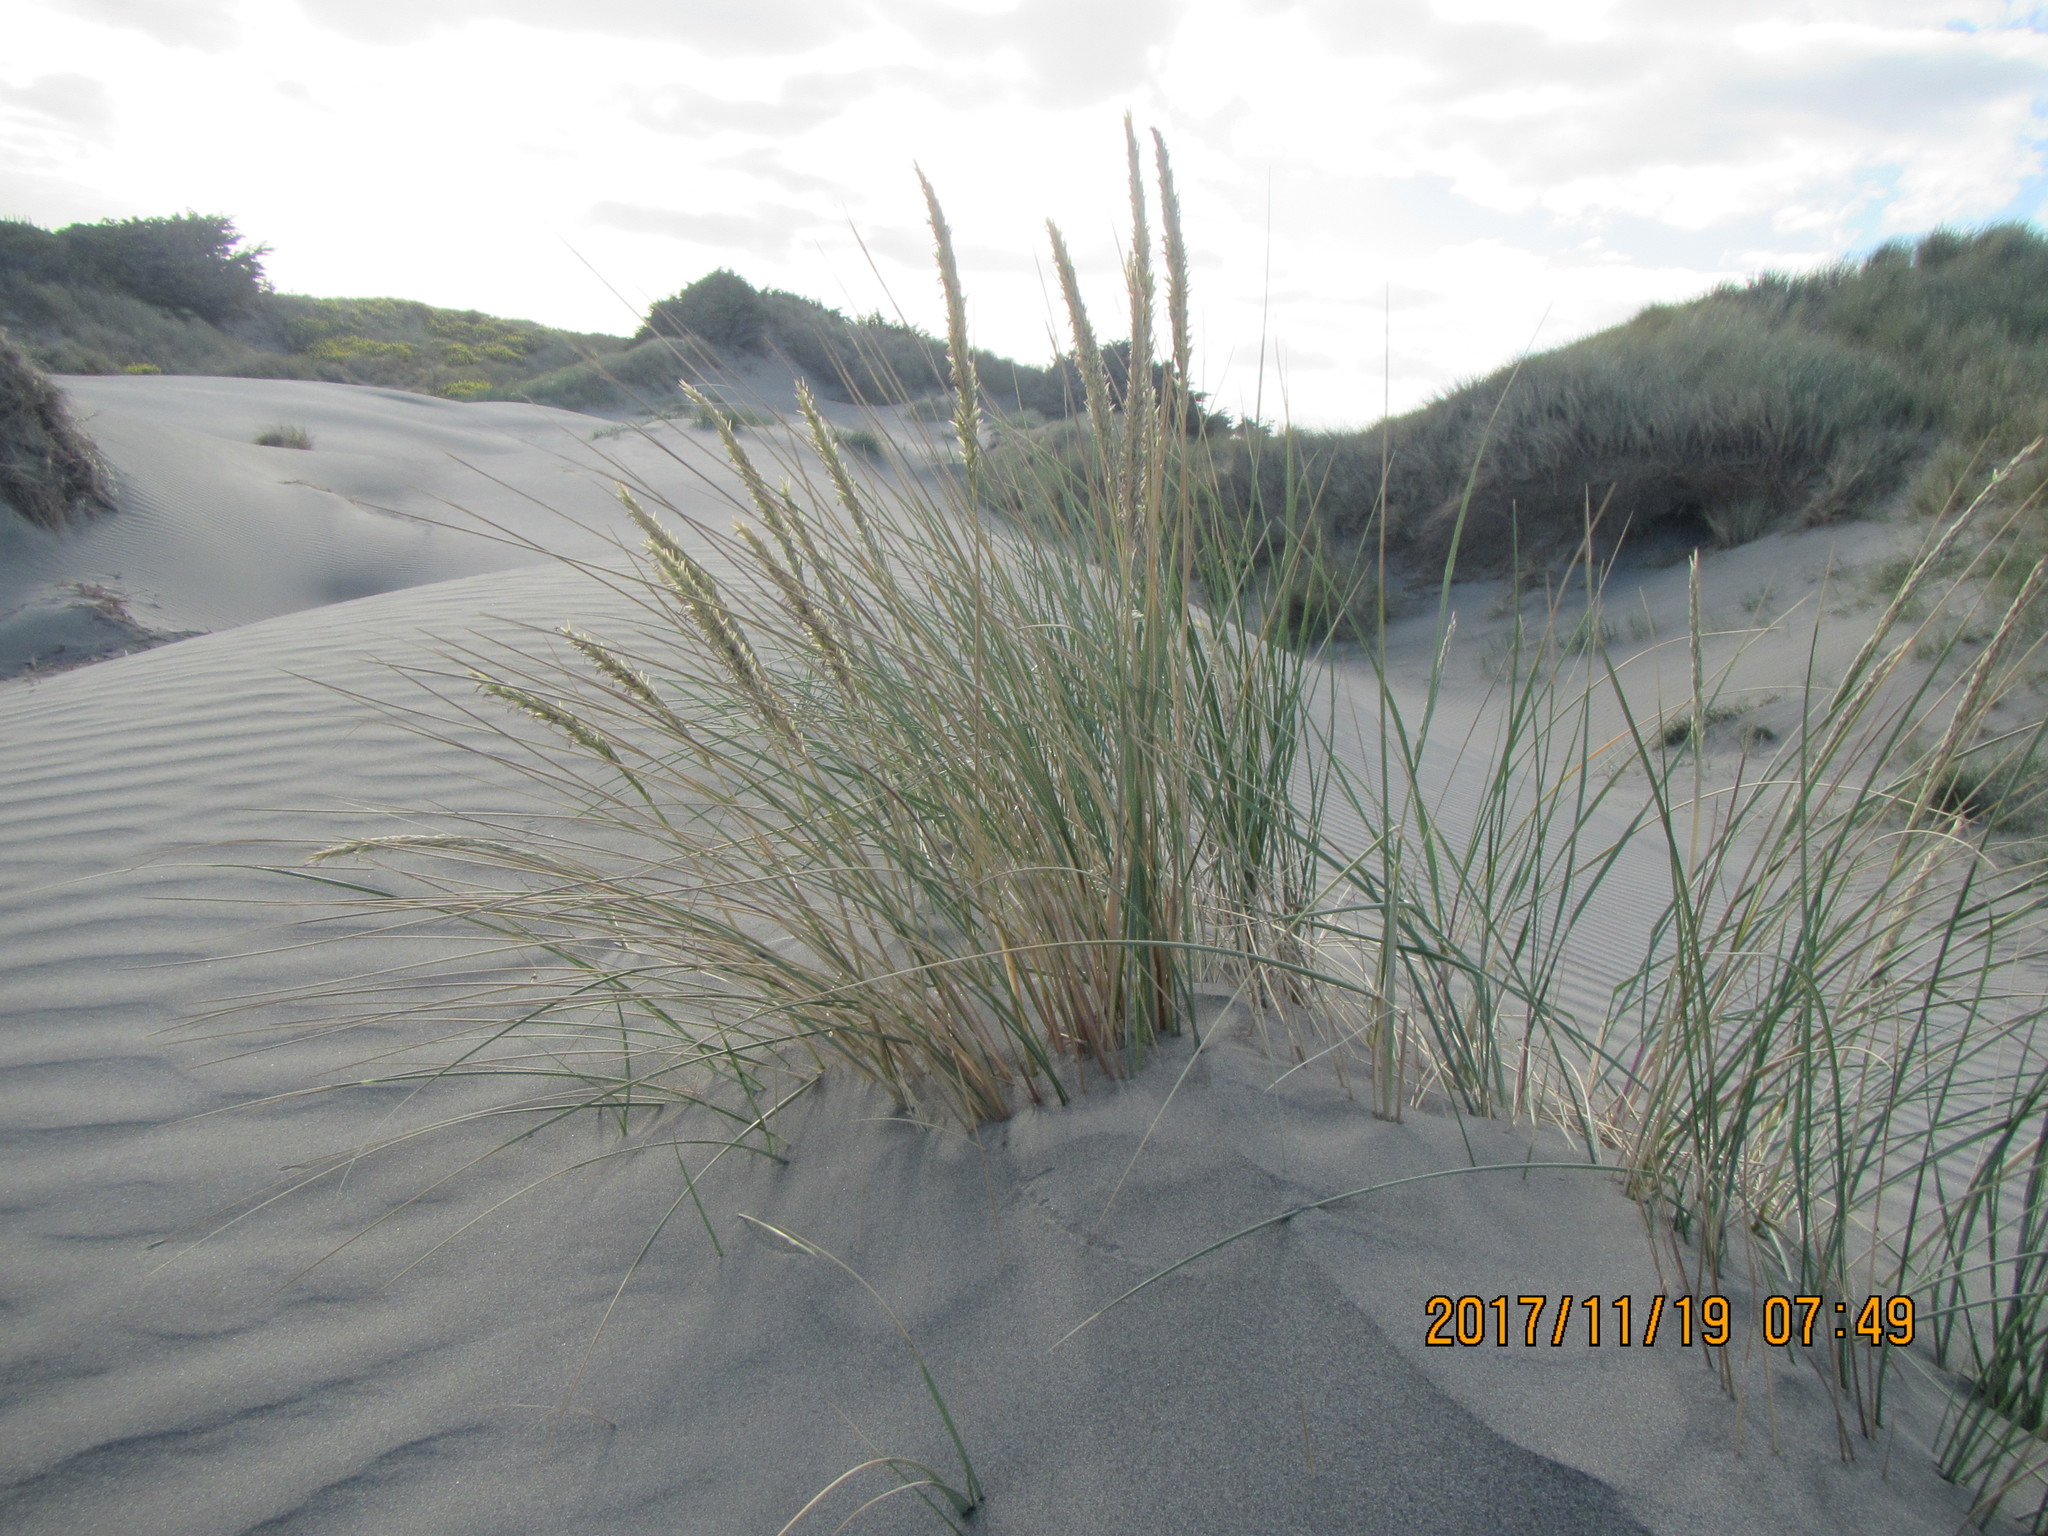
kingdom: Plantae
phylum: Tracheophyta
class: Liliopsida
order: Poales
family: Poaceae
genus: Calamagrostis
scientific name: Calamagrostis arenaria
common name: European beachgrass
